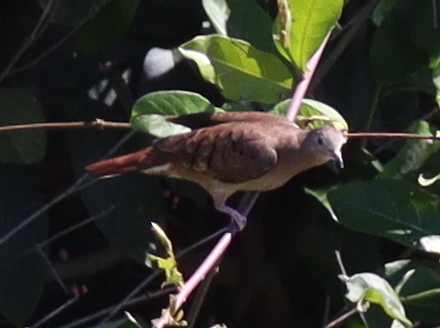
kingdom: Animalia
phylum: Chordata
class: Aves
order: Columbiformes
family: Columbidae
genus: Columbina
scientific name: Columbina talpacoti
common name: Ruddy ground dove
